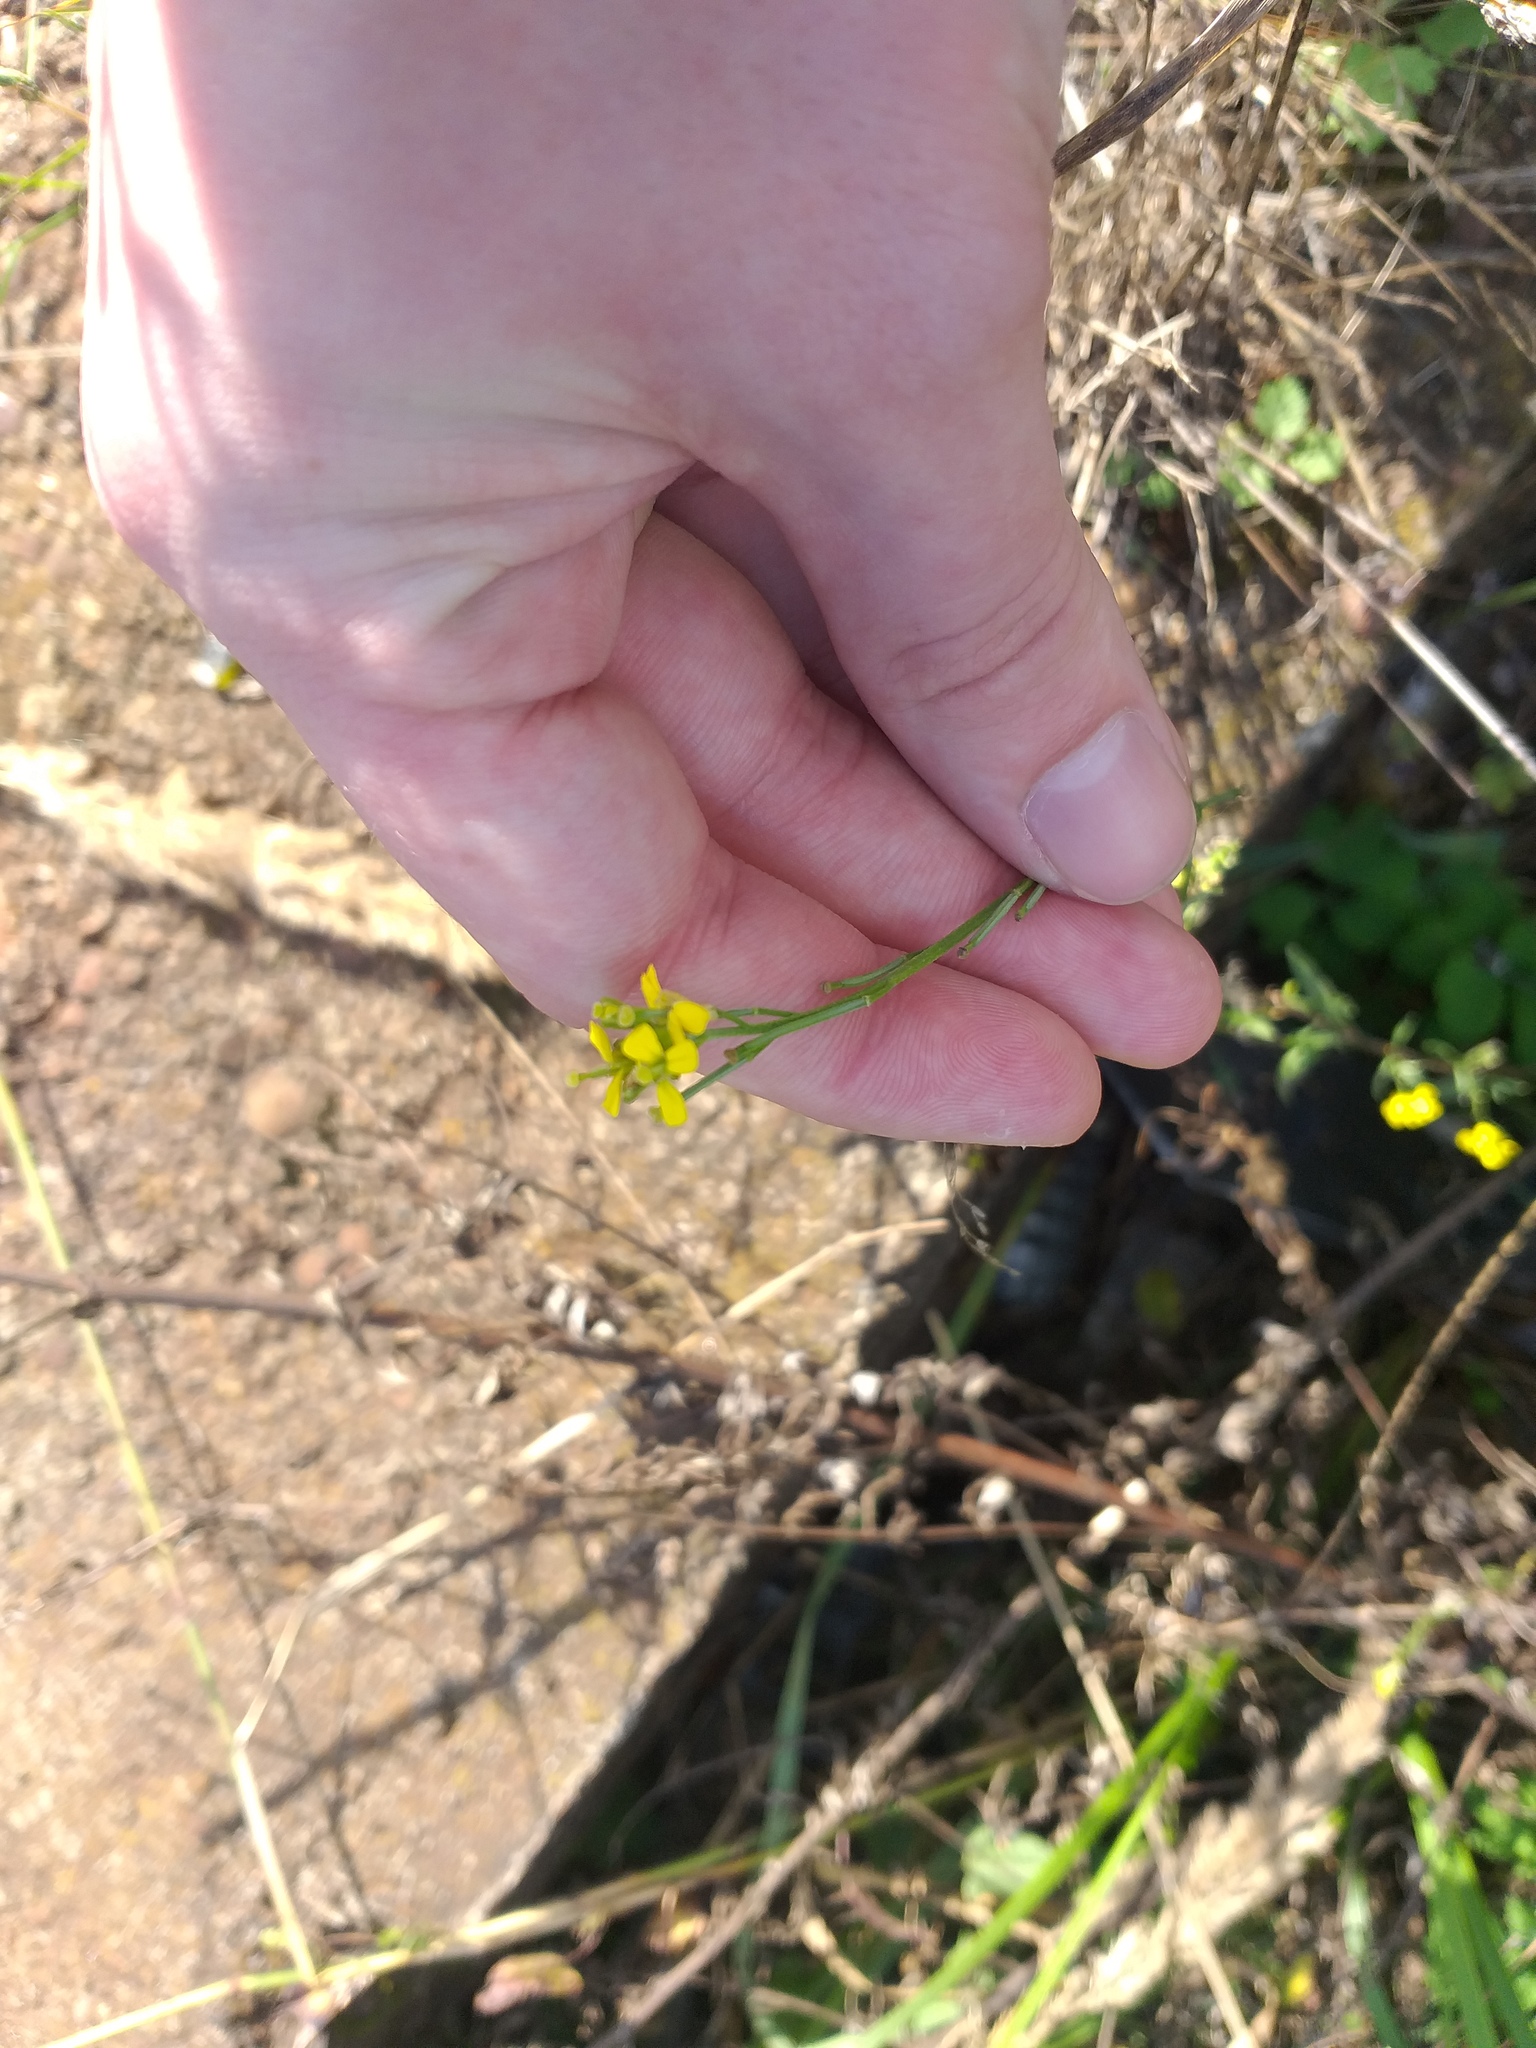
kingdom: Plantae
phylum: Tracheophyta
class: Magnoliopsida
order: Brassicales
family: Brassicaceae
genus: Erysimum
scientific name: Erysimum hieraciifolium
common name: European wallflower
